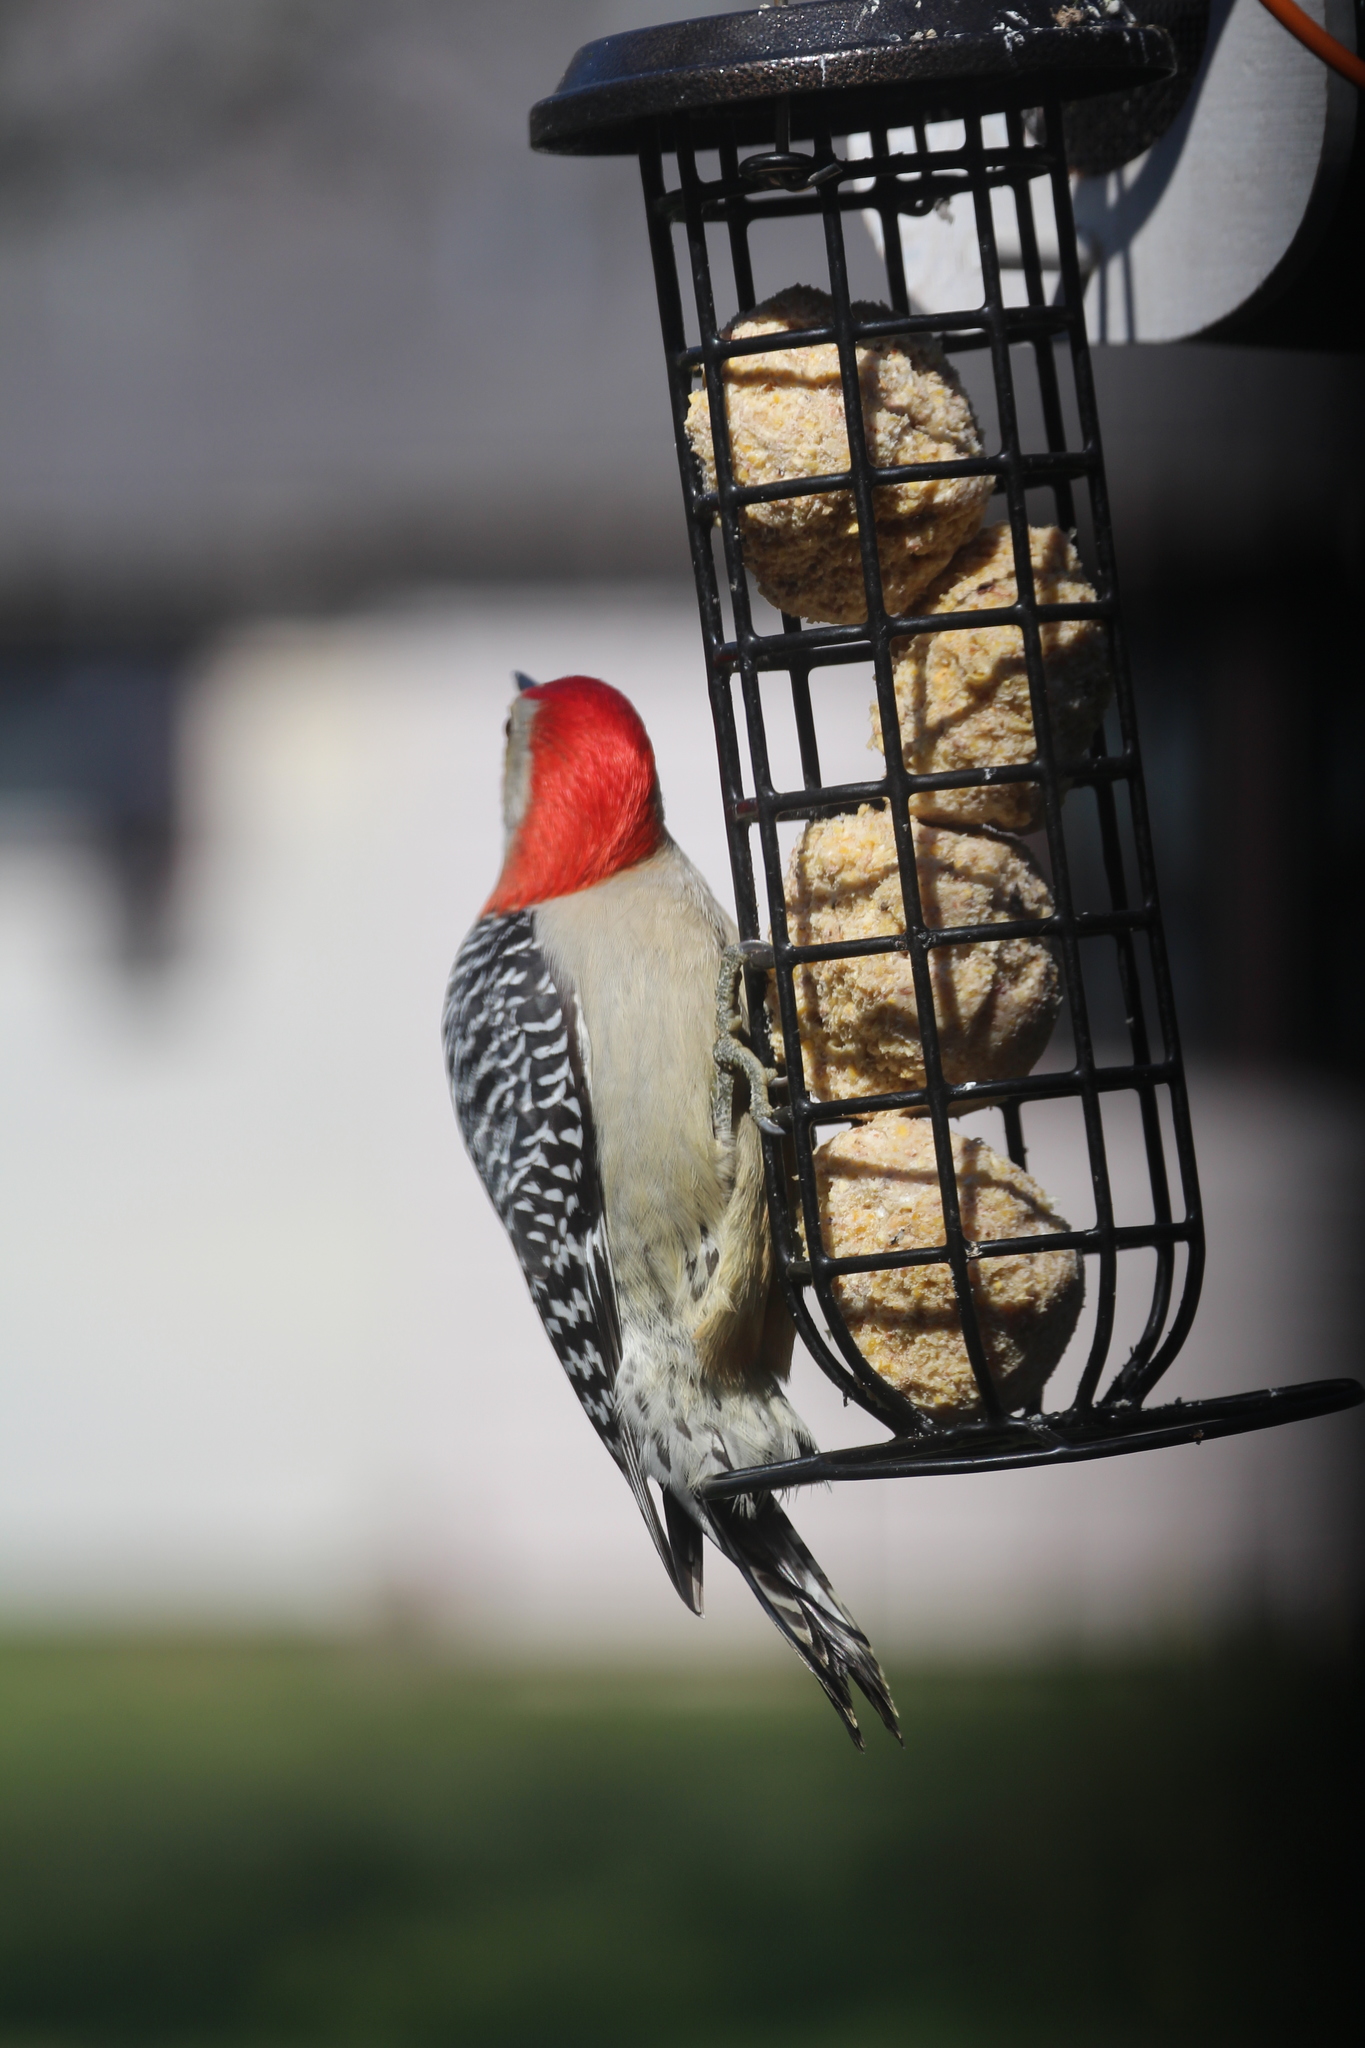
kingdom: Animalia
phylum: Chordata
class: Aves
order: Piciformes
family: Picidae
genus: Melanerpes
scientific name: Melanerpes carolinus
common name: Red-bellied woodpecker
